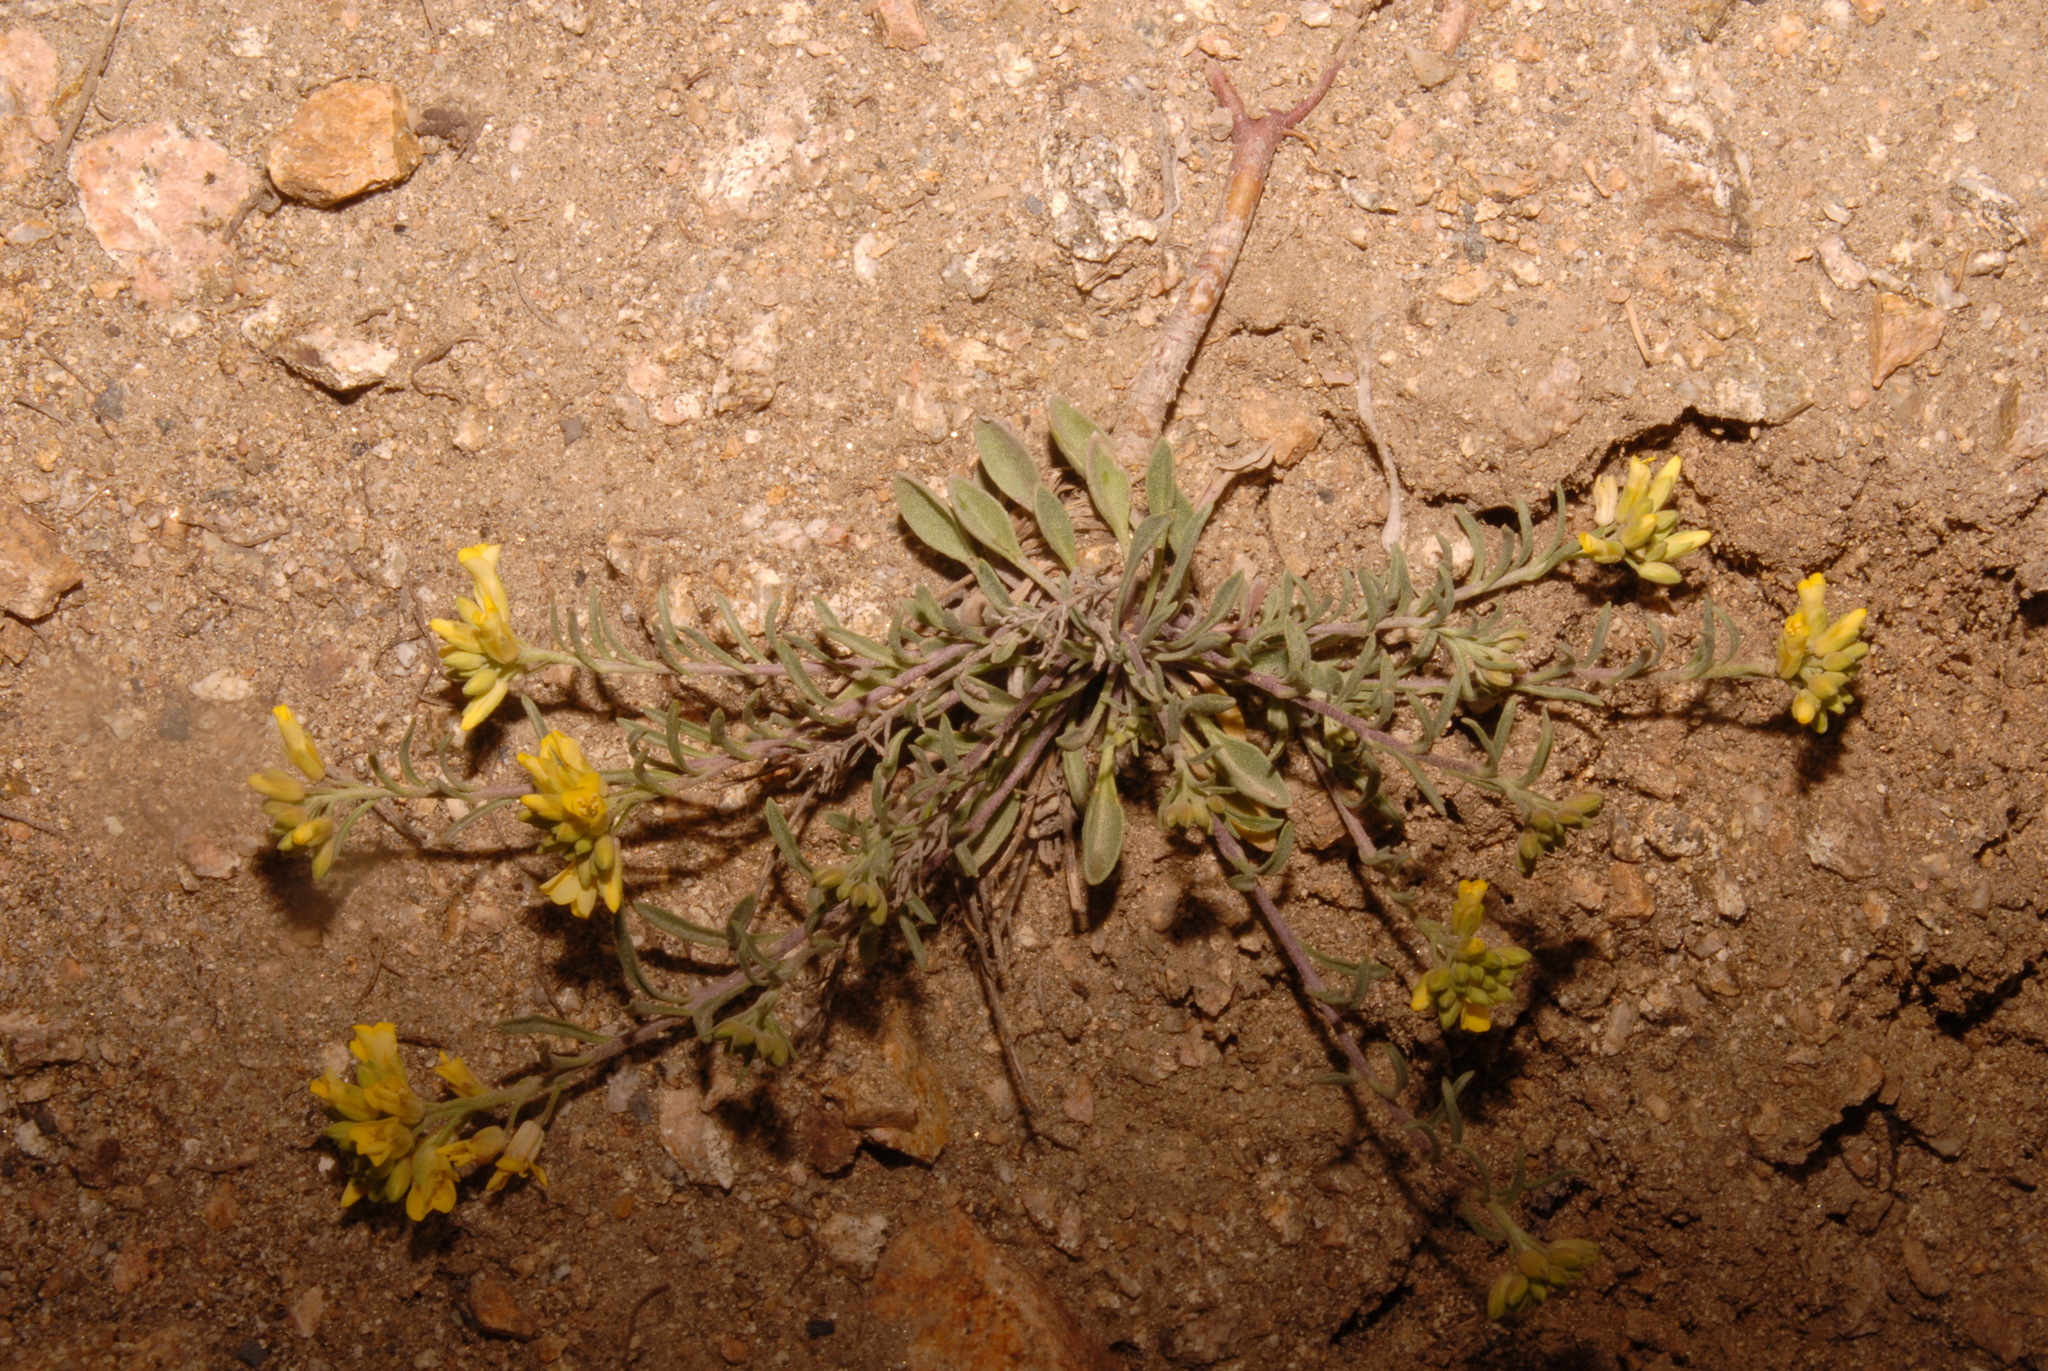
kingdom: Plantae
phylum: Tracheophyta
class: Magnoliopsida
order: Brassicales
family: Brassicaceae
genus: Physaria
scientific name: Physaria montana
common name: Mountain bladderpod
